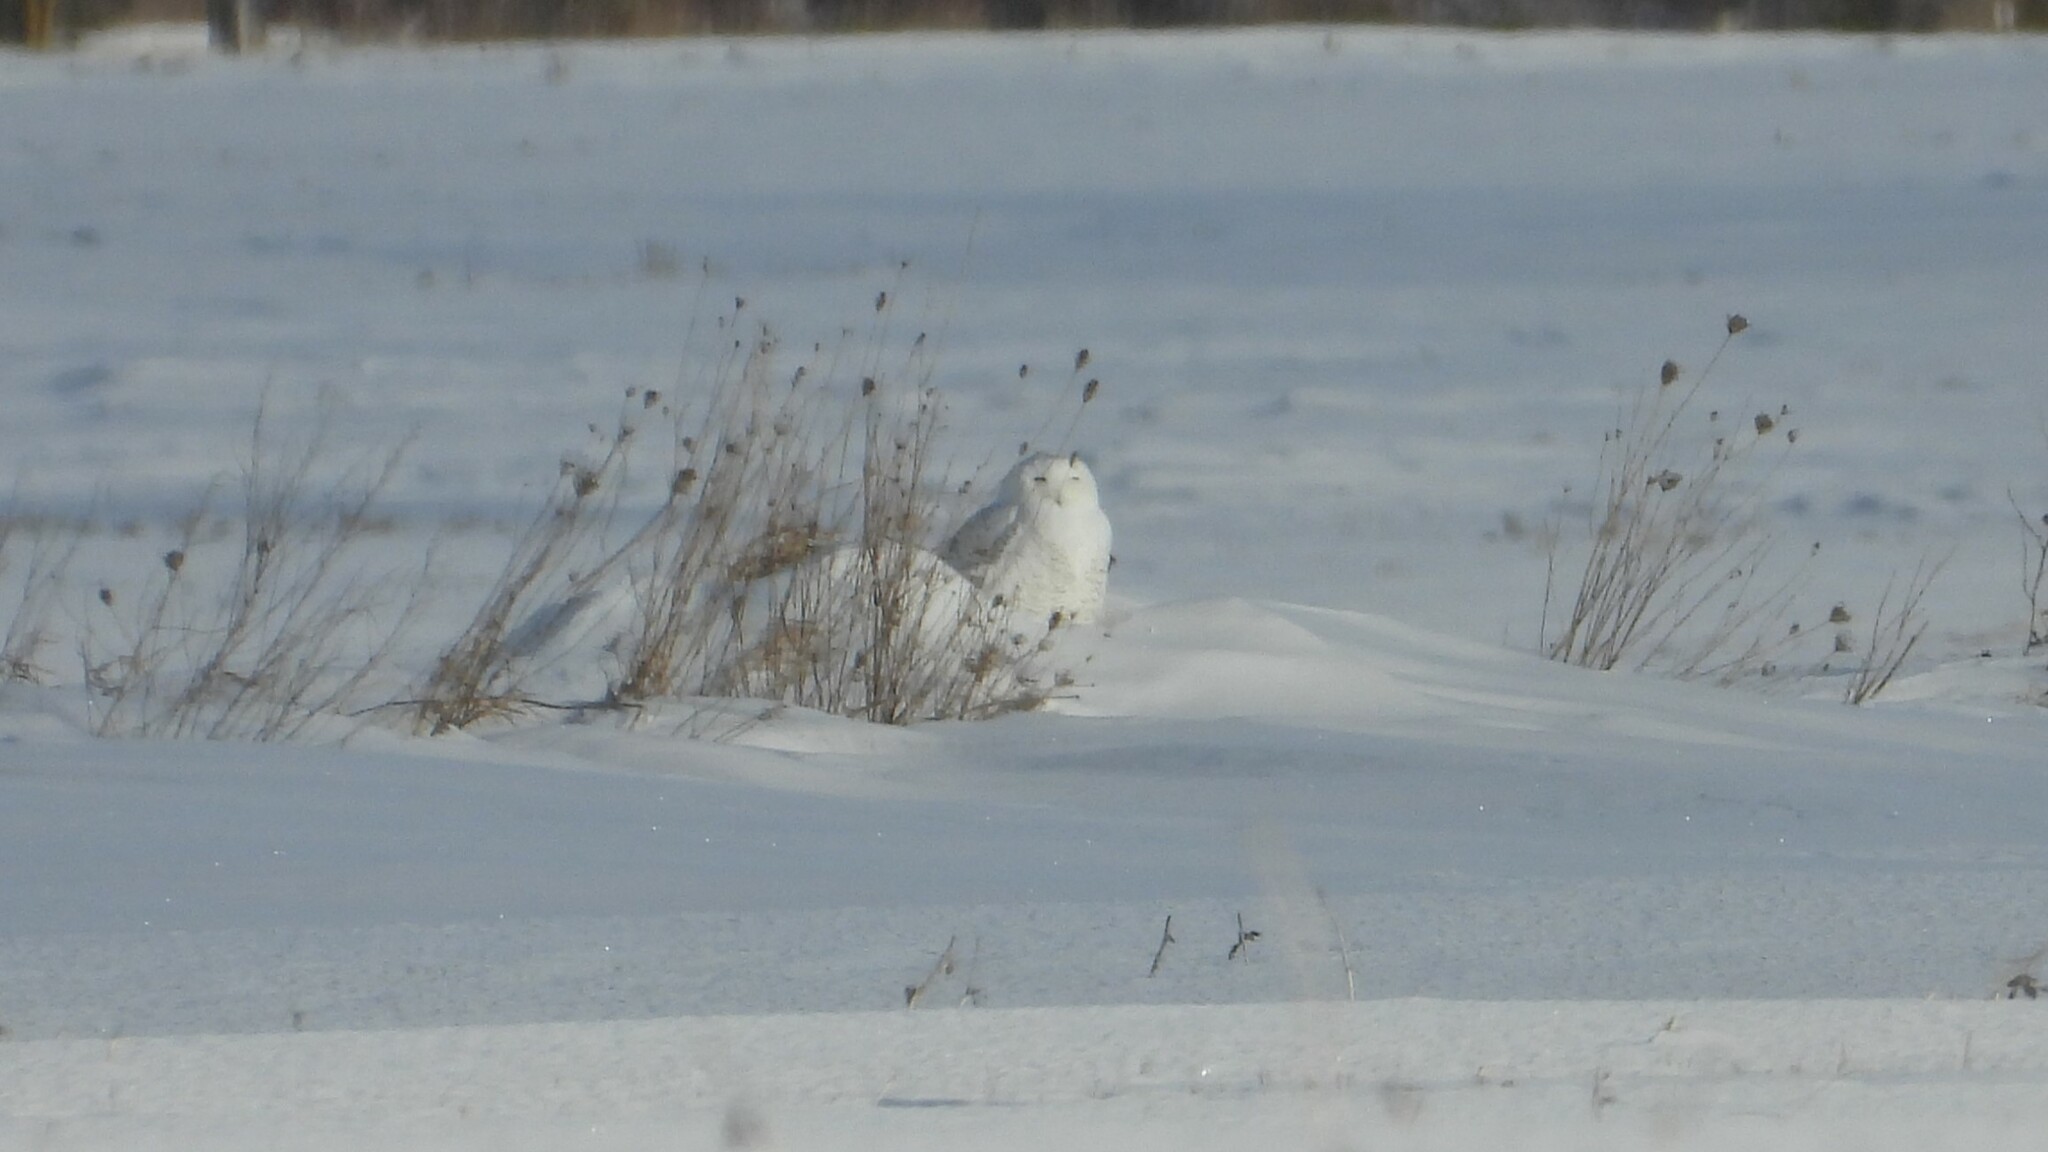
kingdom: Animalia
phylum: Chordata
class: Aves
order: Strigiformes
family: Strigidae
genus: Bubo
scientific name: Bubo scandiacus
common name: Snowy owl
